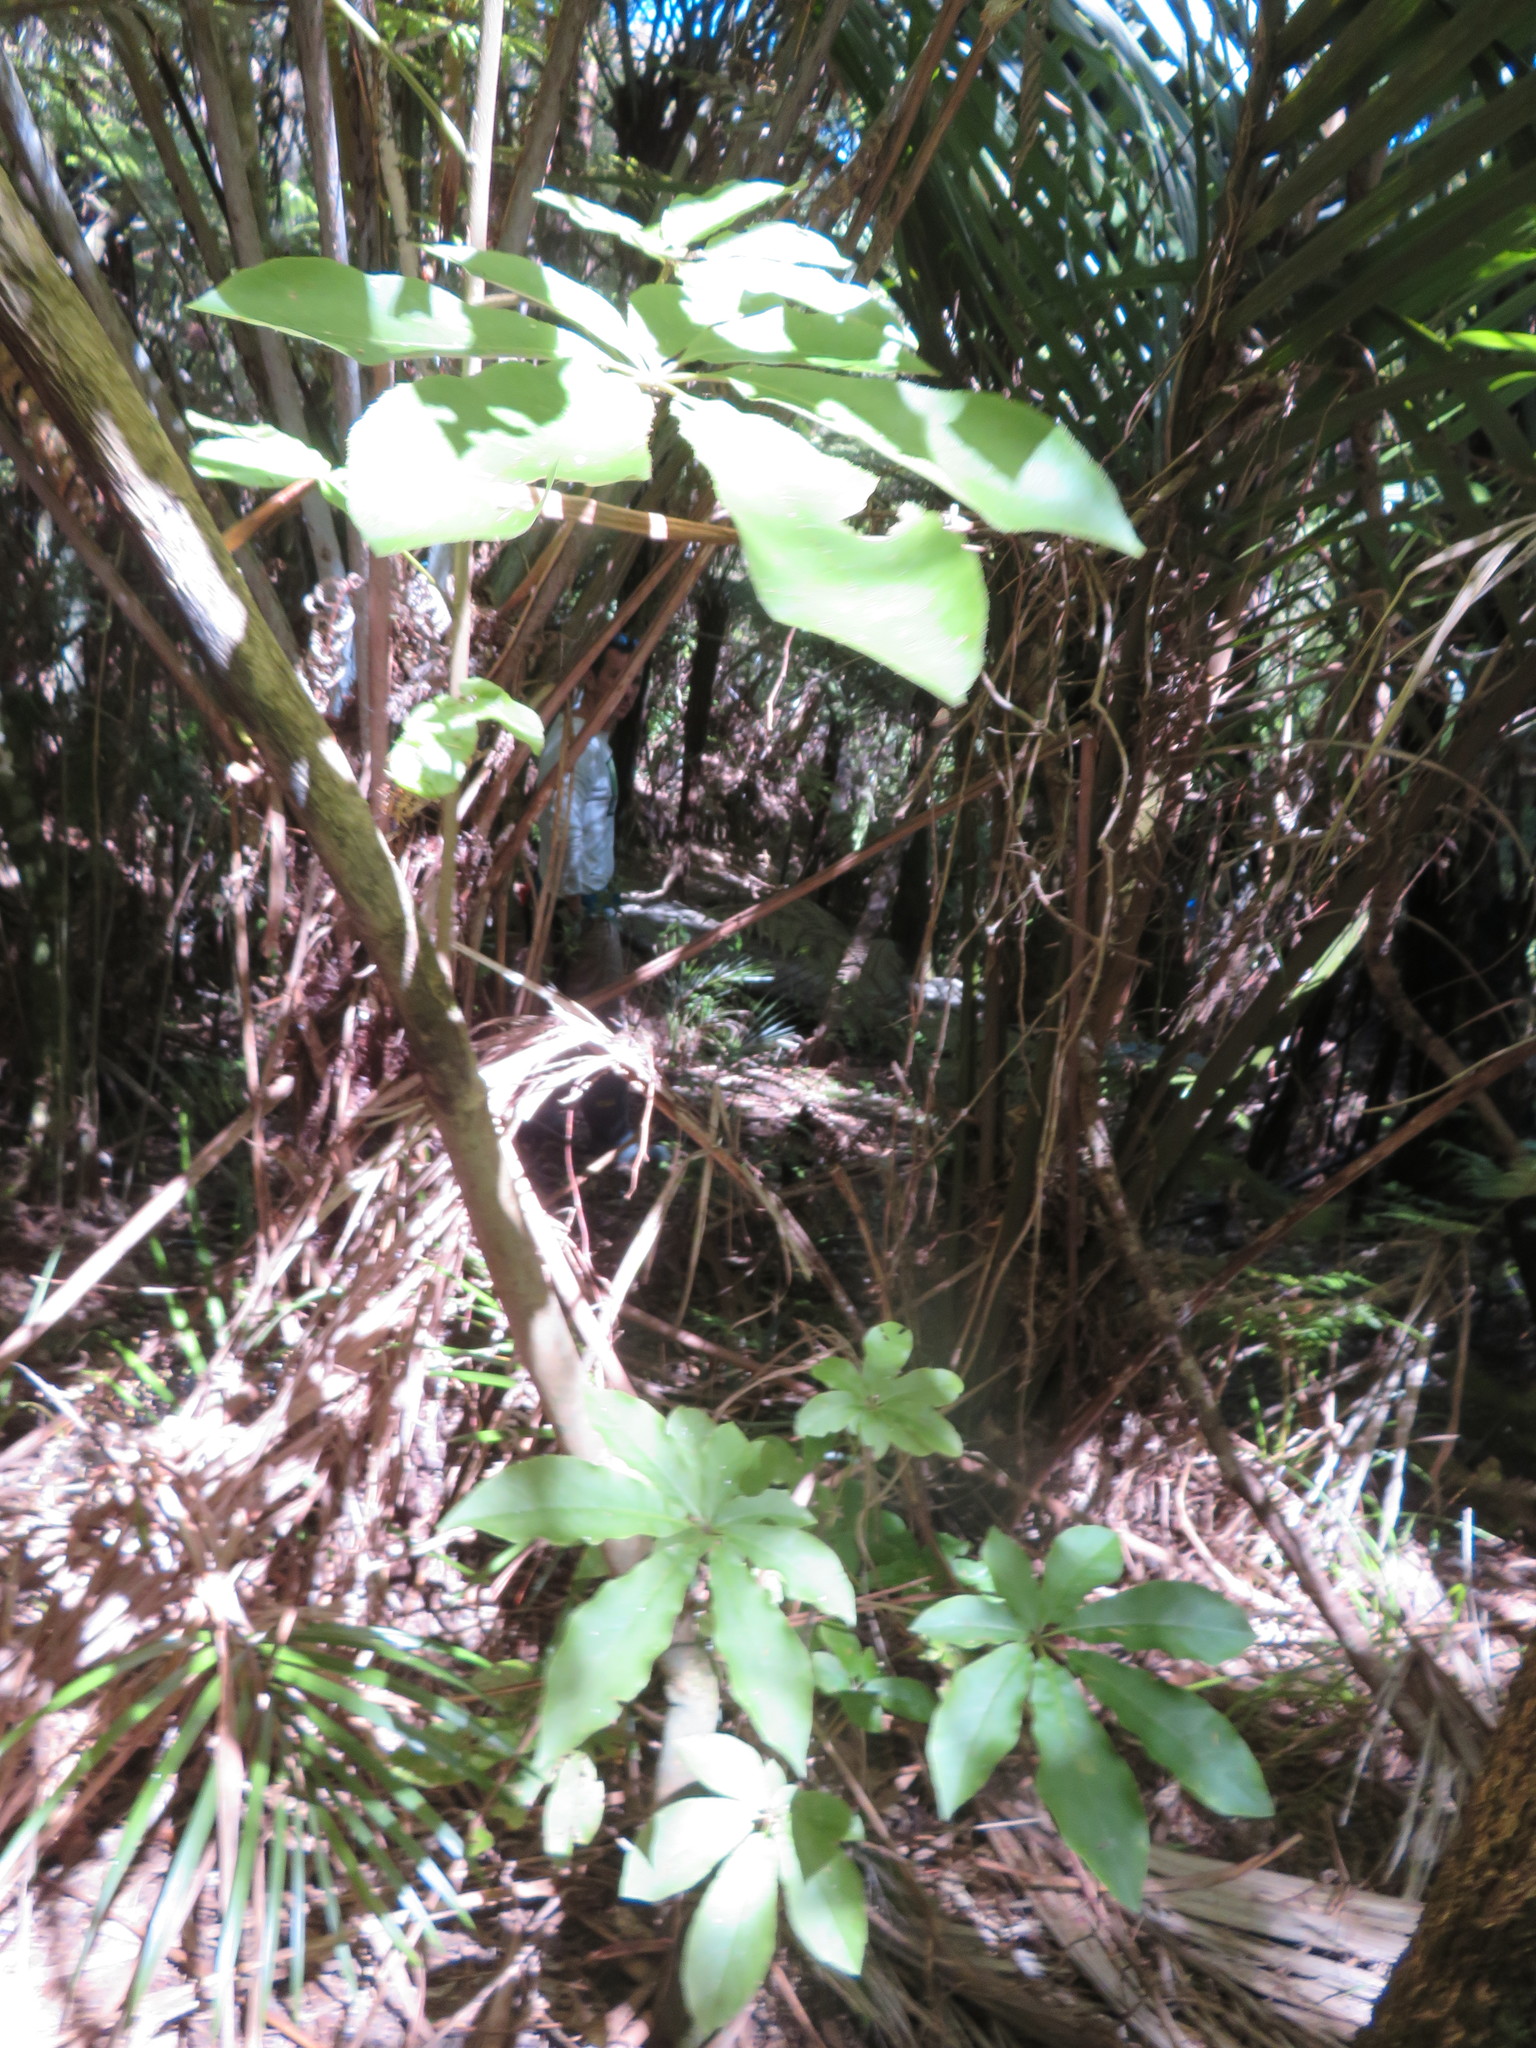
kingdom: Plantae
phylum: Tracheophyta
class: Magnoliopsida
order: Apiales
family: Araliaceae
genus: Schefflera
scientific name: Schefflera digitata
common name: Pate
